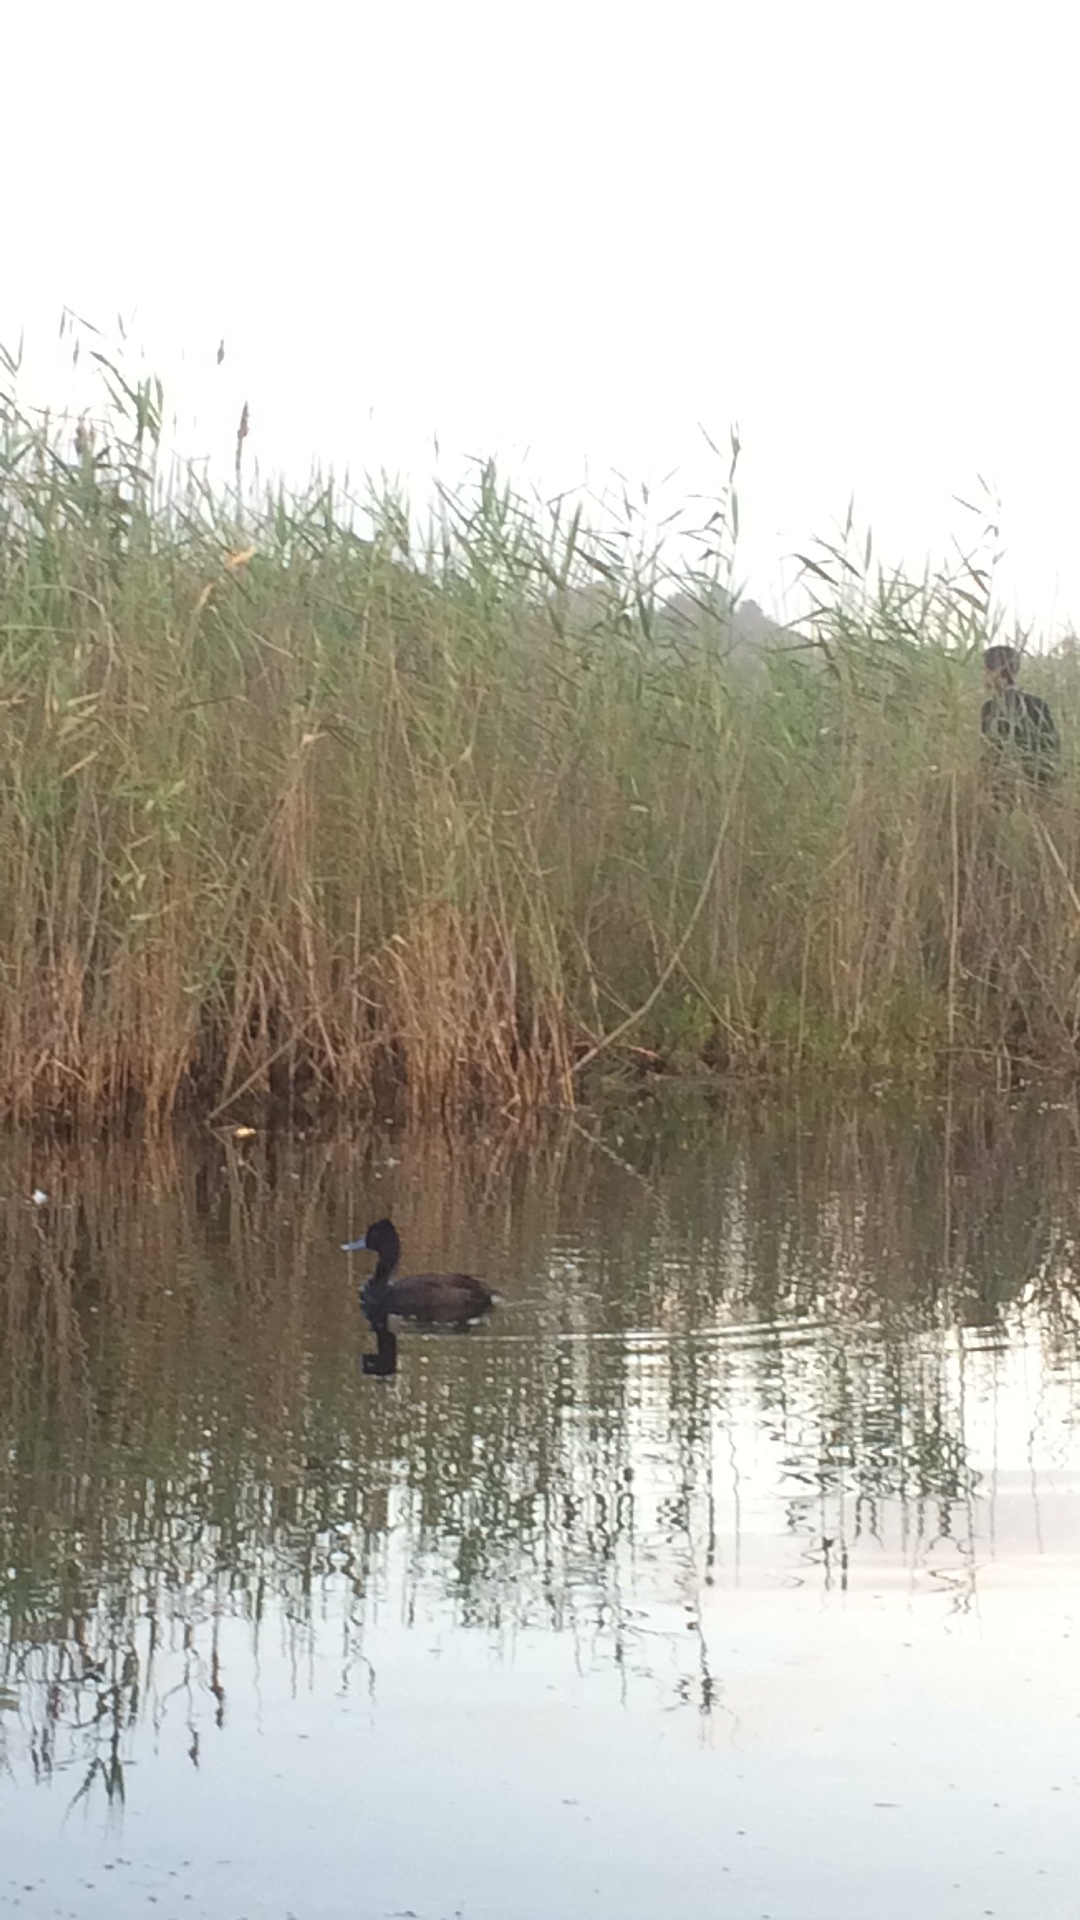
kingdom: Animalia
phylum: Chordata
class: Aves
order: Anseriformes
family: Anatidae
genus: Netta
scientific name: Netta erythrophthalma
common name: Southern pochard
